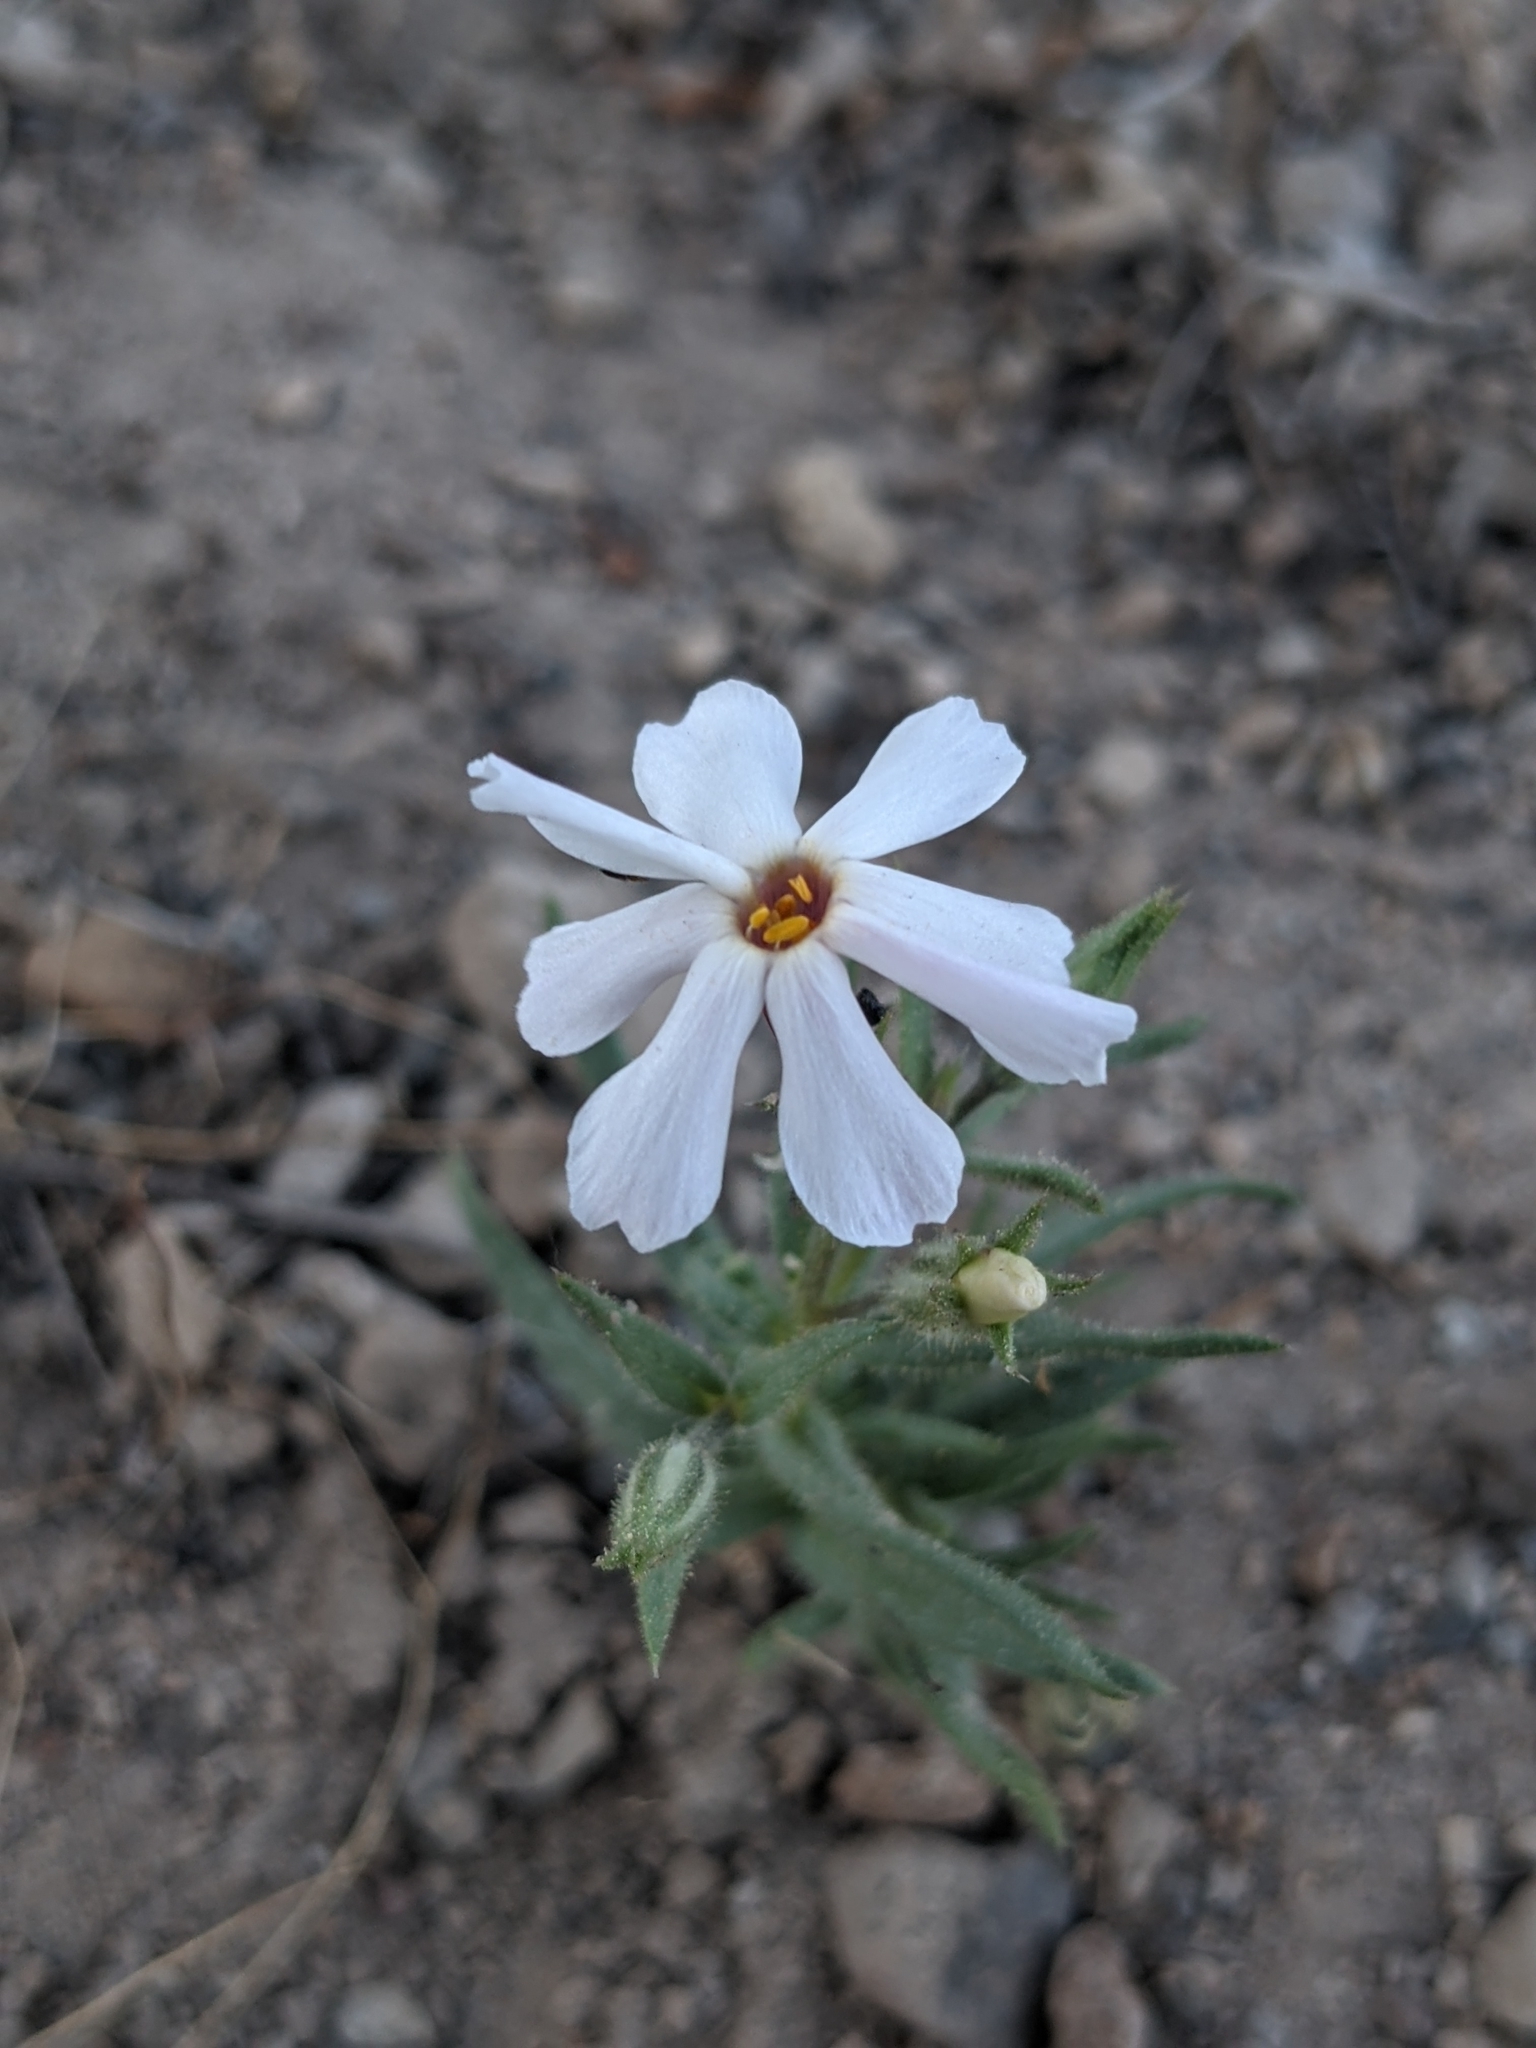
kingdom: Plantae
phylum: Tracheophyta
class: Magnoliopsida
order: Ericales
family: Polemoniaceae
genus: Phlox
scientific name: Phlox longifolia
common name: Longleaf phlox
